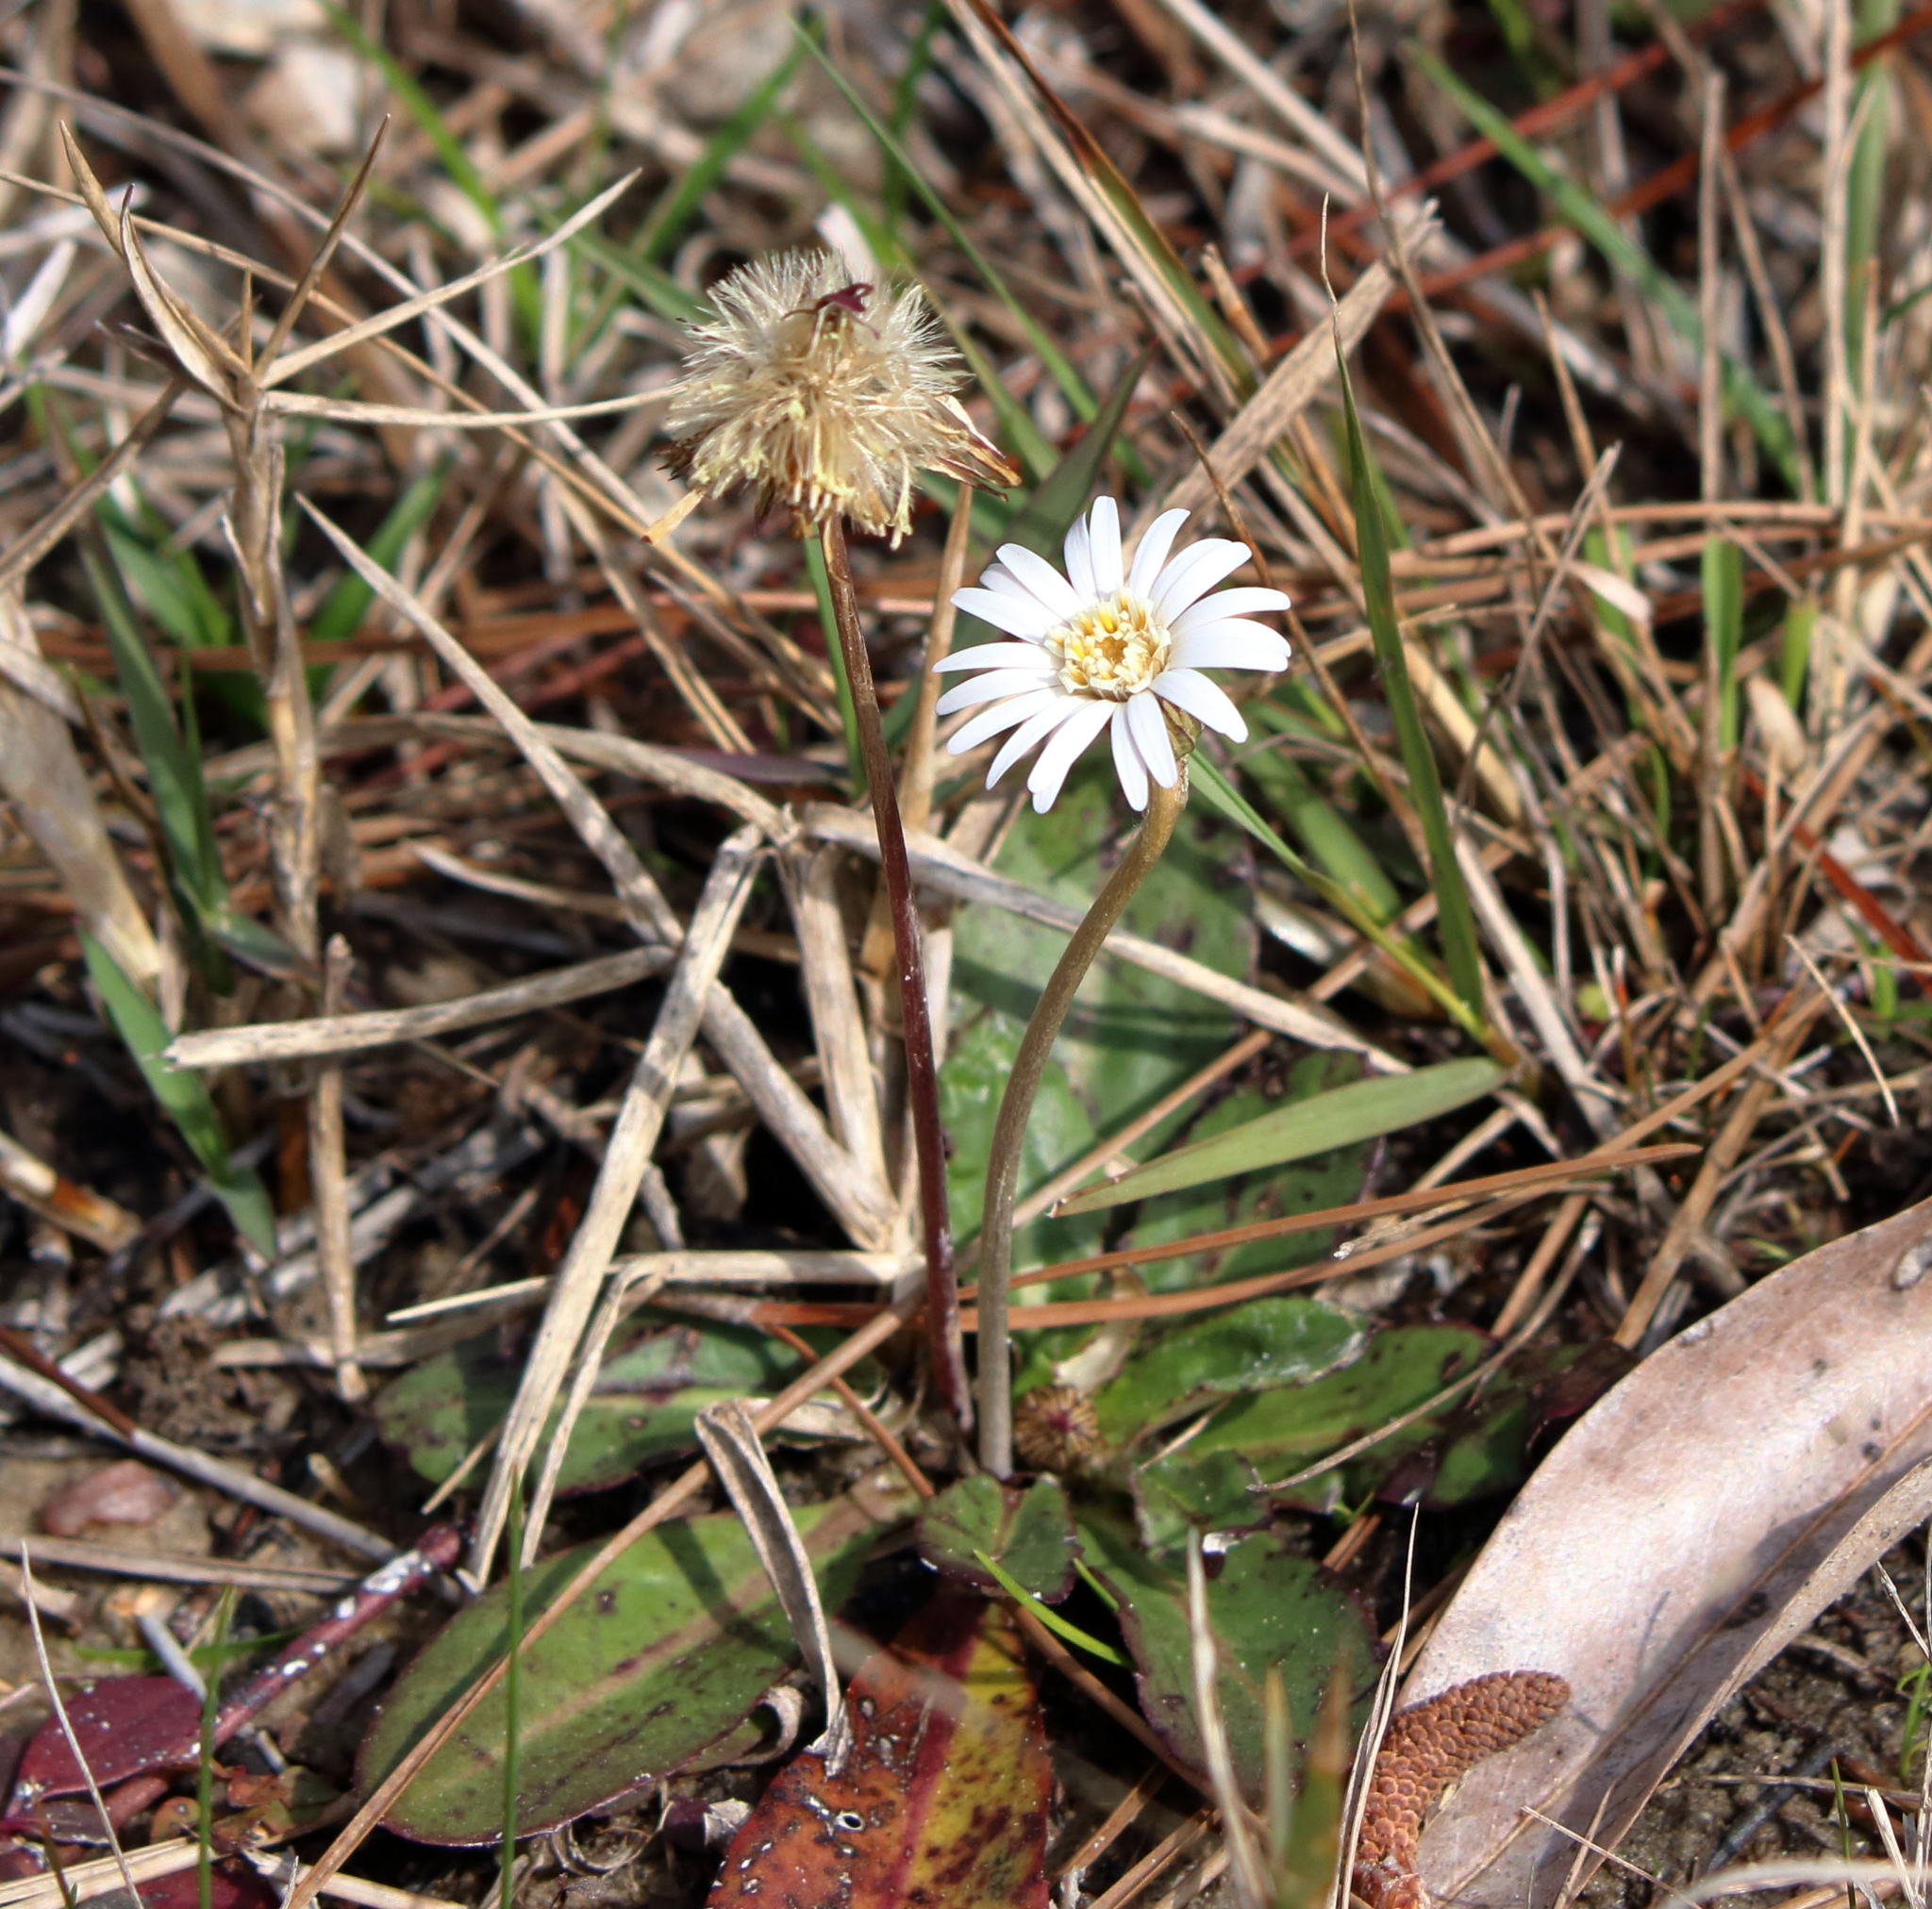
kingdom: Plantae
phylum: Tracheophyta
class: Magnoliopsida
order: Asterales
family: Asteraceae
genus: Chaptalia
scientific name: Chaptalia tomentosa
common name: Woolly sunbonnet
